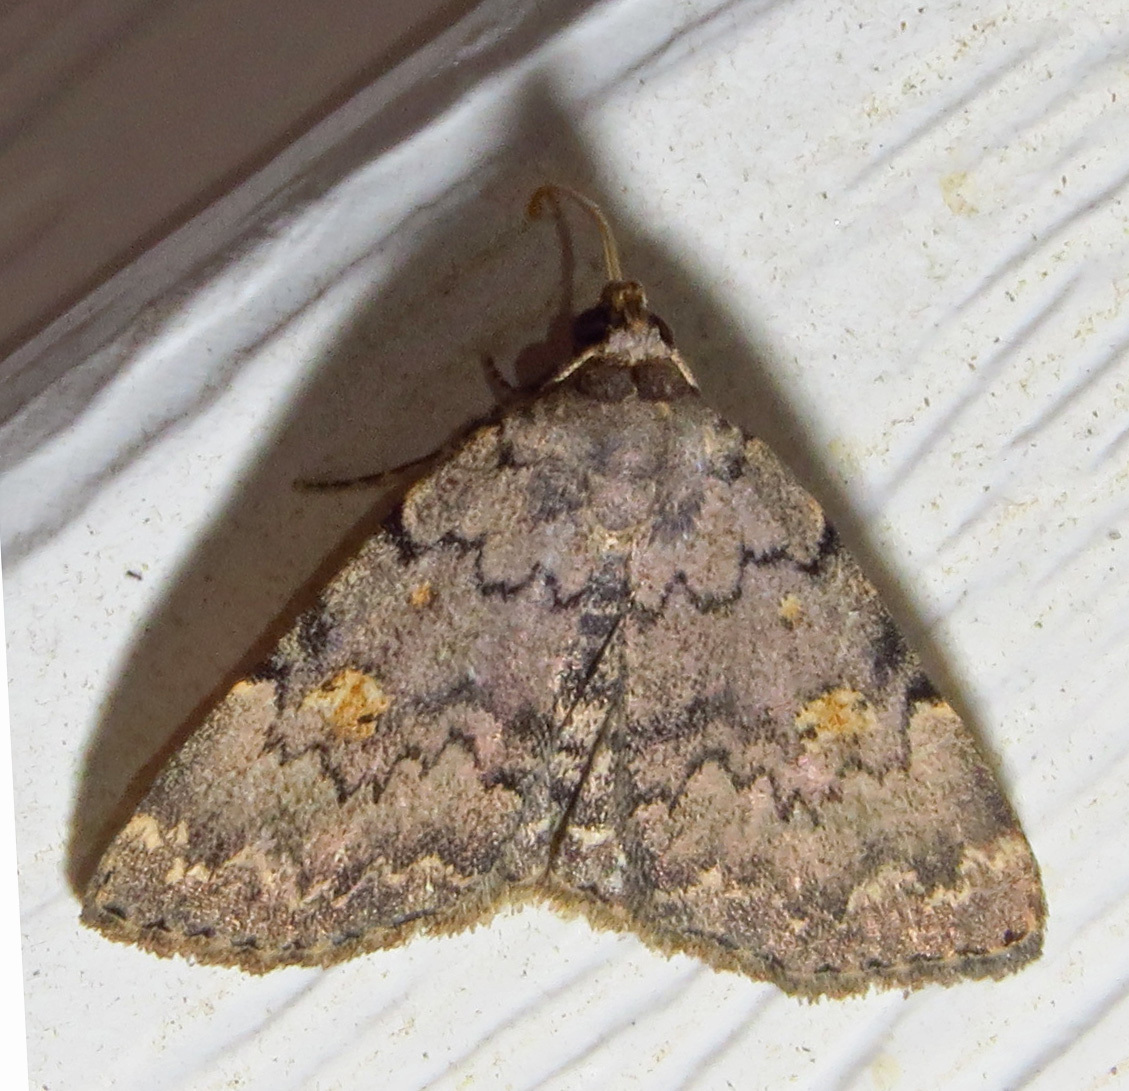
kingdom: Animalia
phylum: Arthropoda
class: Insecta
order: Lepidoptera
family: Erebidae
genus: Idia
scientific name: Idia aemula
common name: Common idia moth
